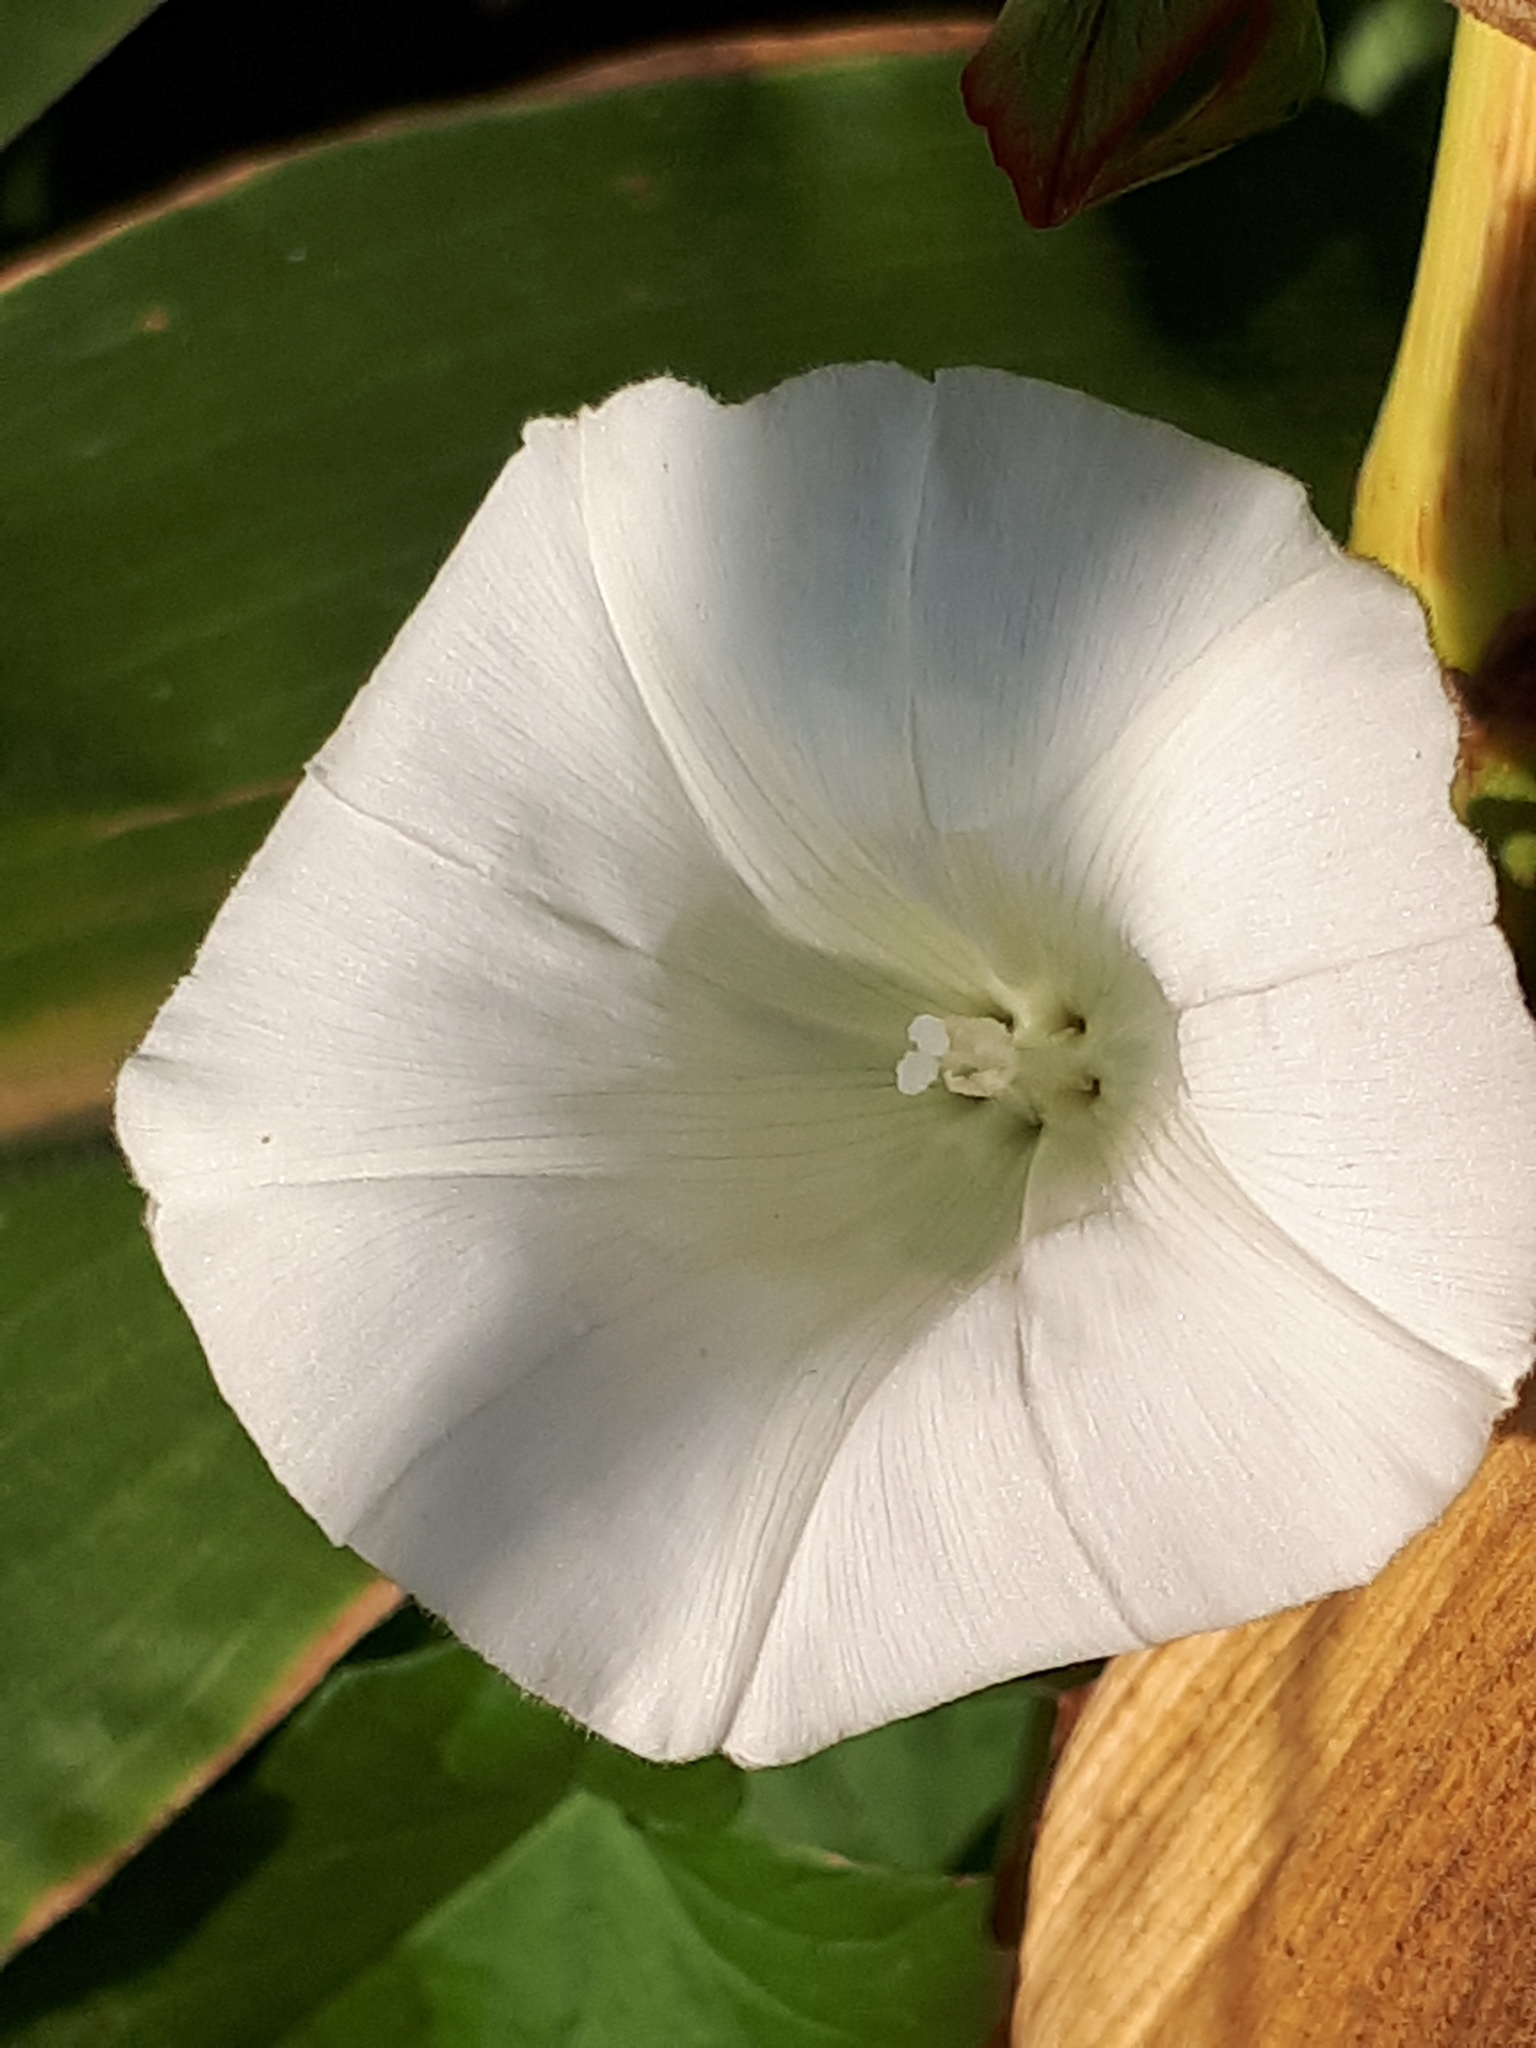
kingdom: Plantae
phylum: Tracheophyta
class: Magnoliopsida
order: Solanales
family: Convolvulaceae
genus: Calystegia
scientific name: Calystegia sepium
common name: Hedge bindweed
